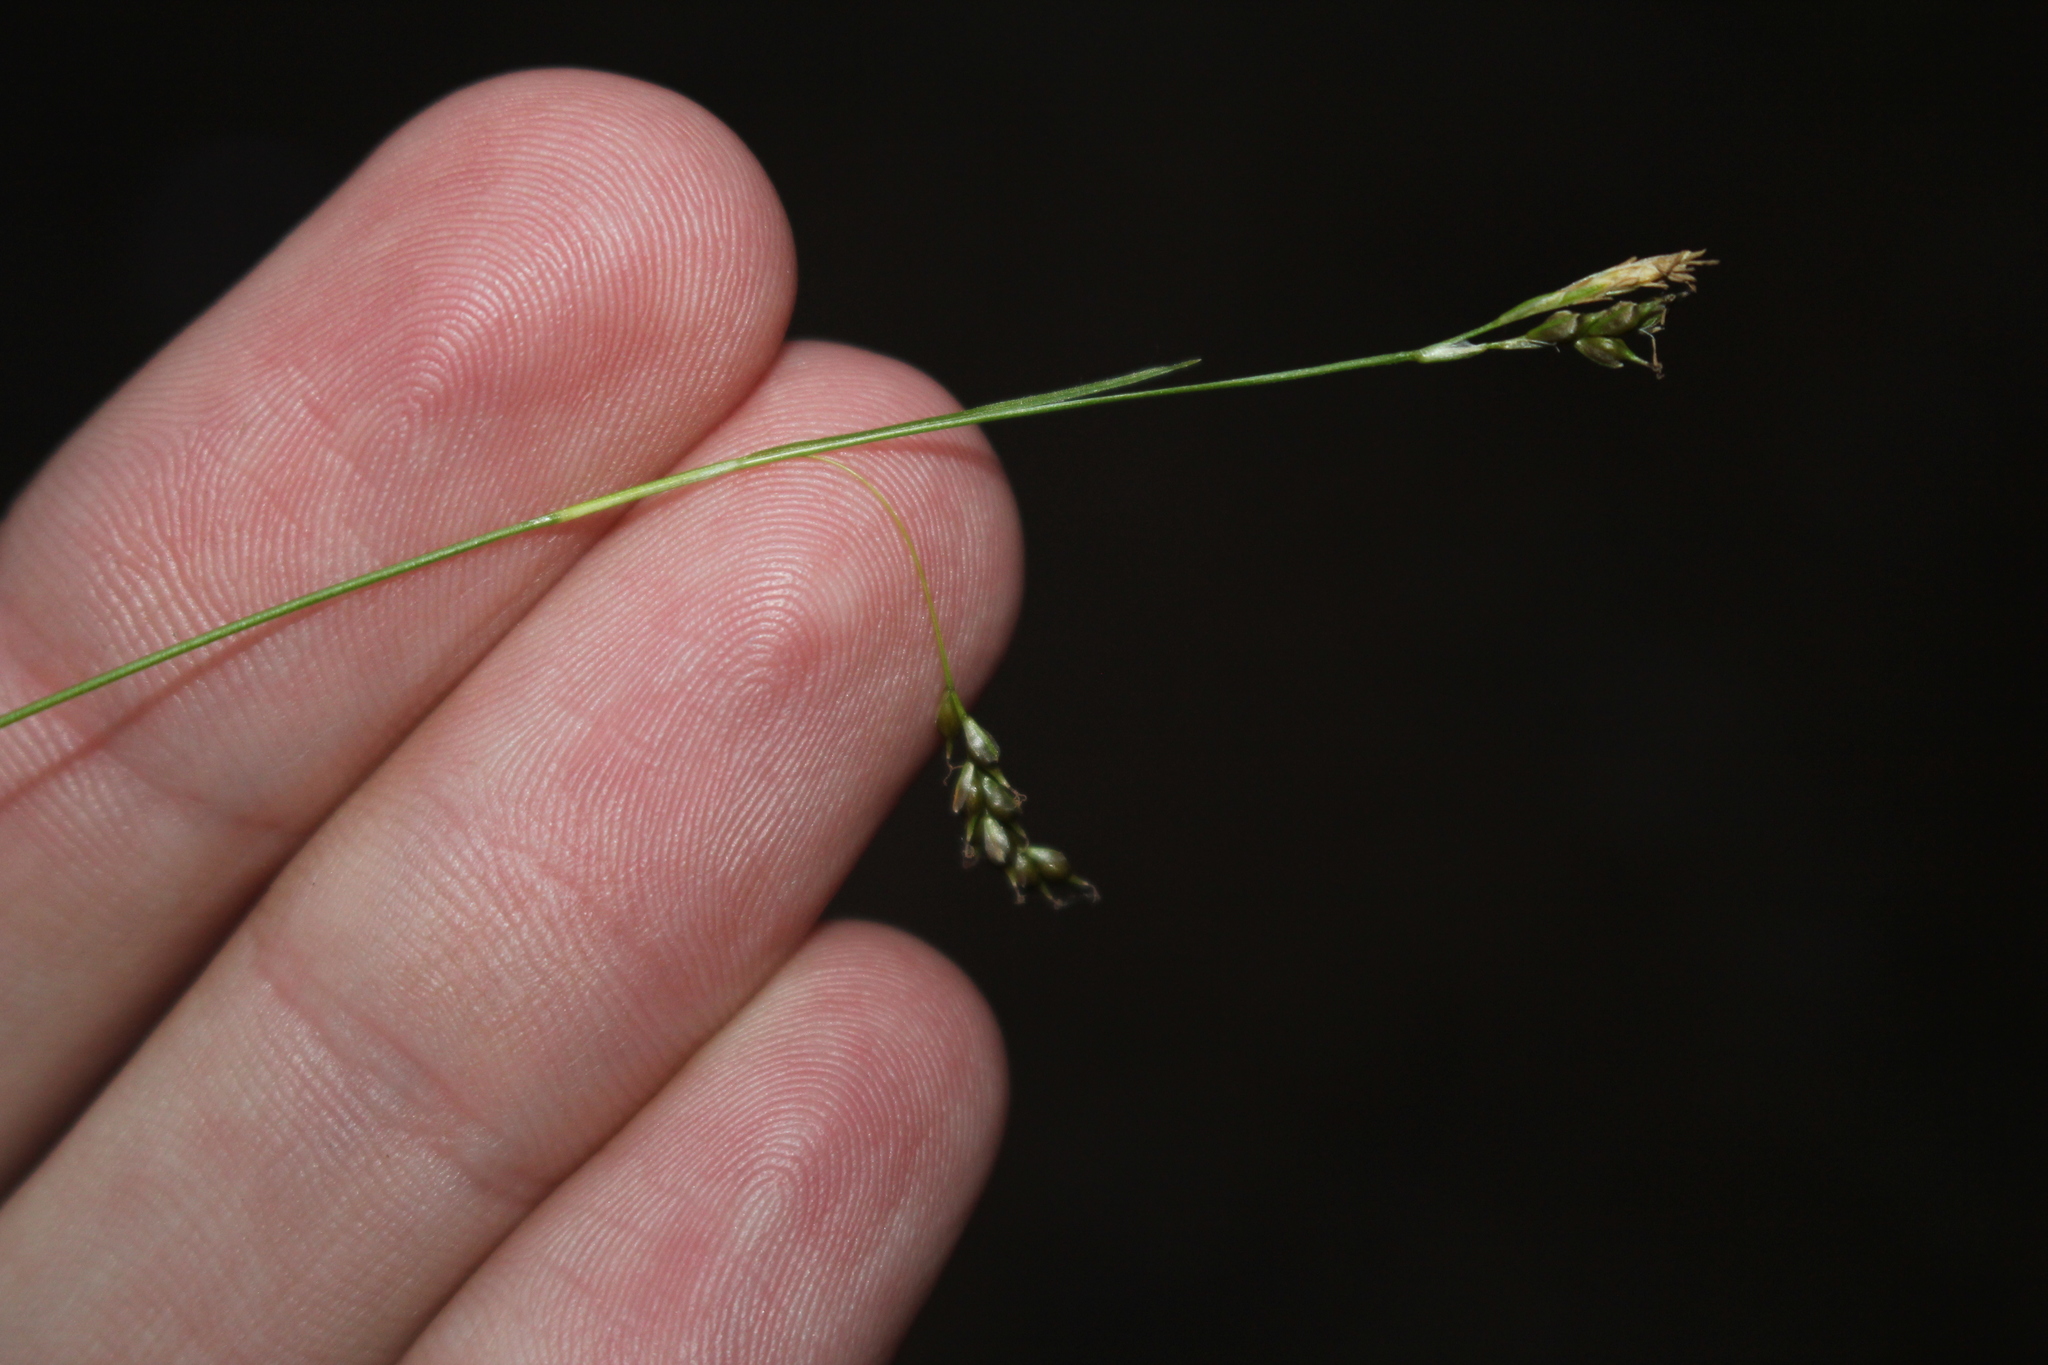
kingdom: Plantae
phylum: Tracheophyta
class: Liliopsida
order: Poales
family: Cyperaceae
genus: Carex
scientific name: Carex capillaris
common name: Hair sedge
